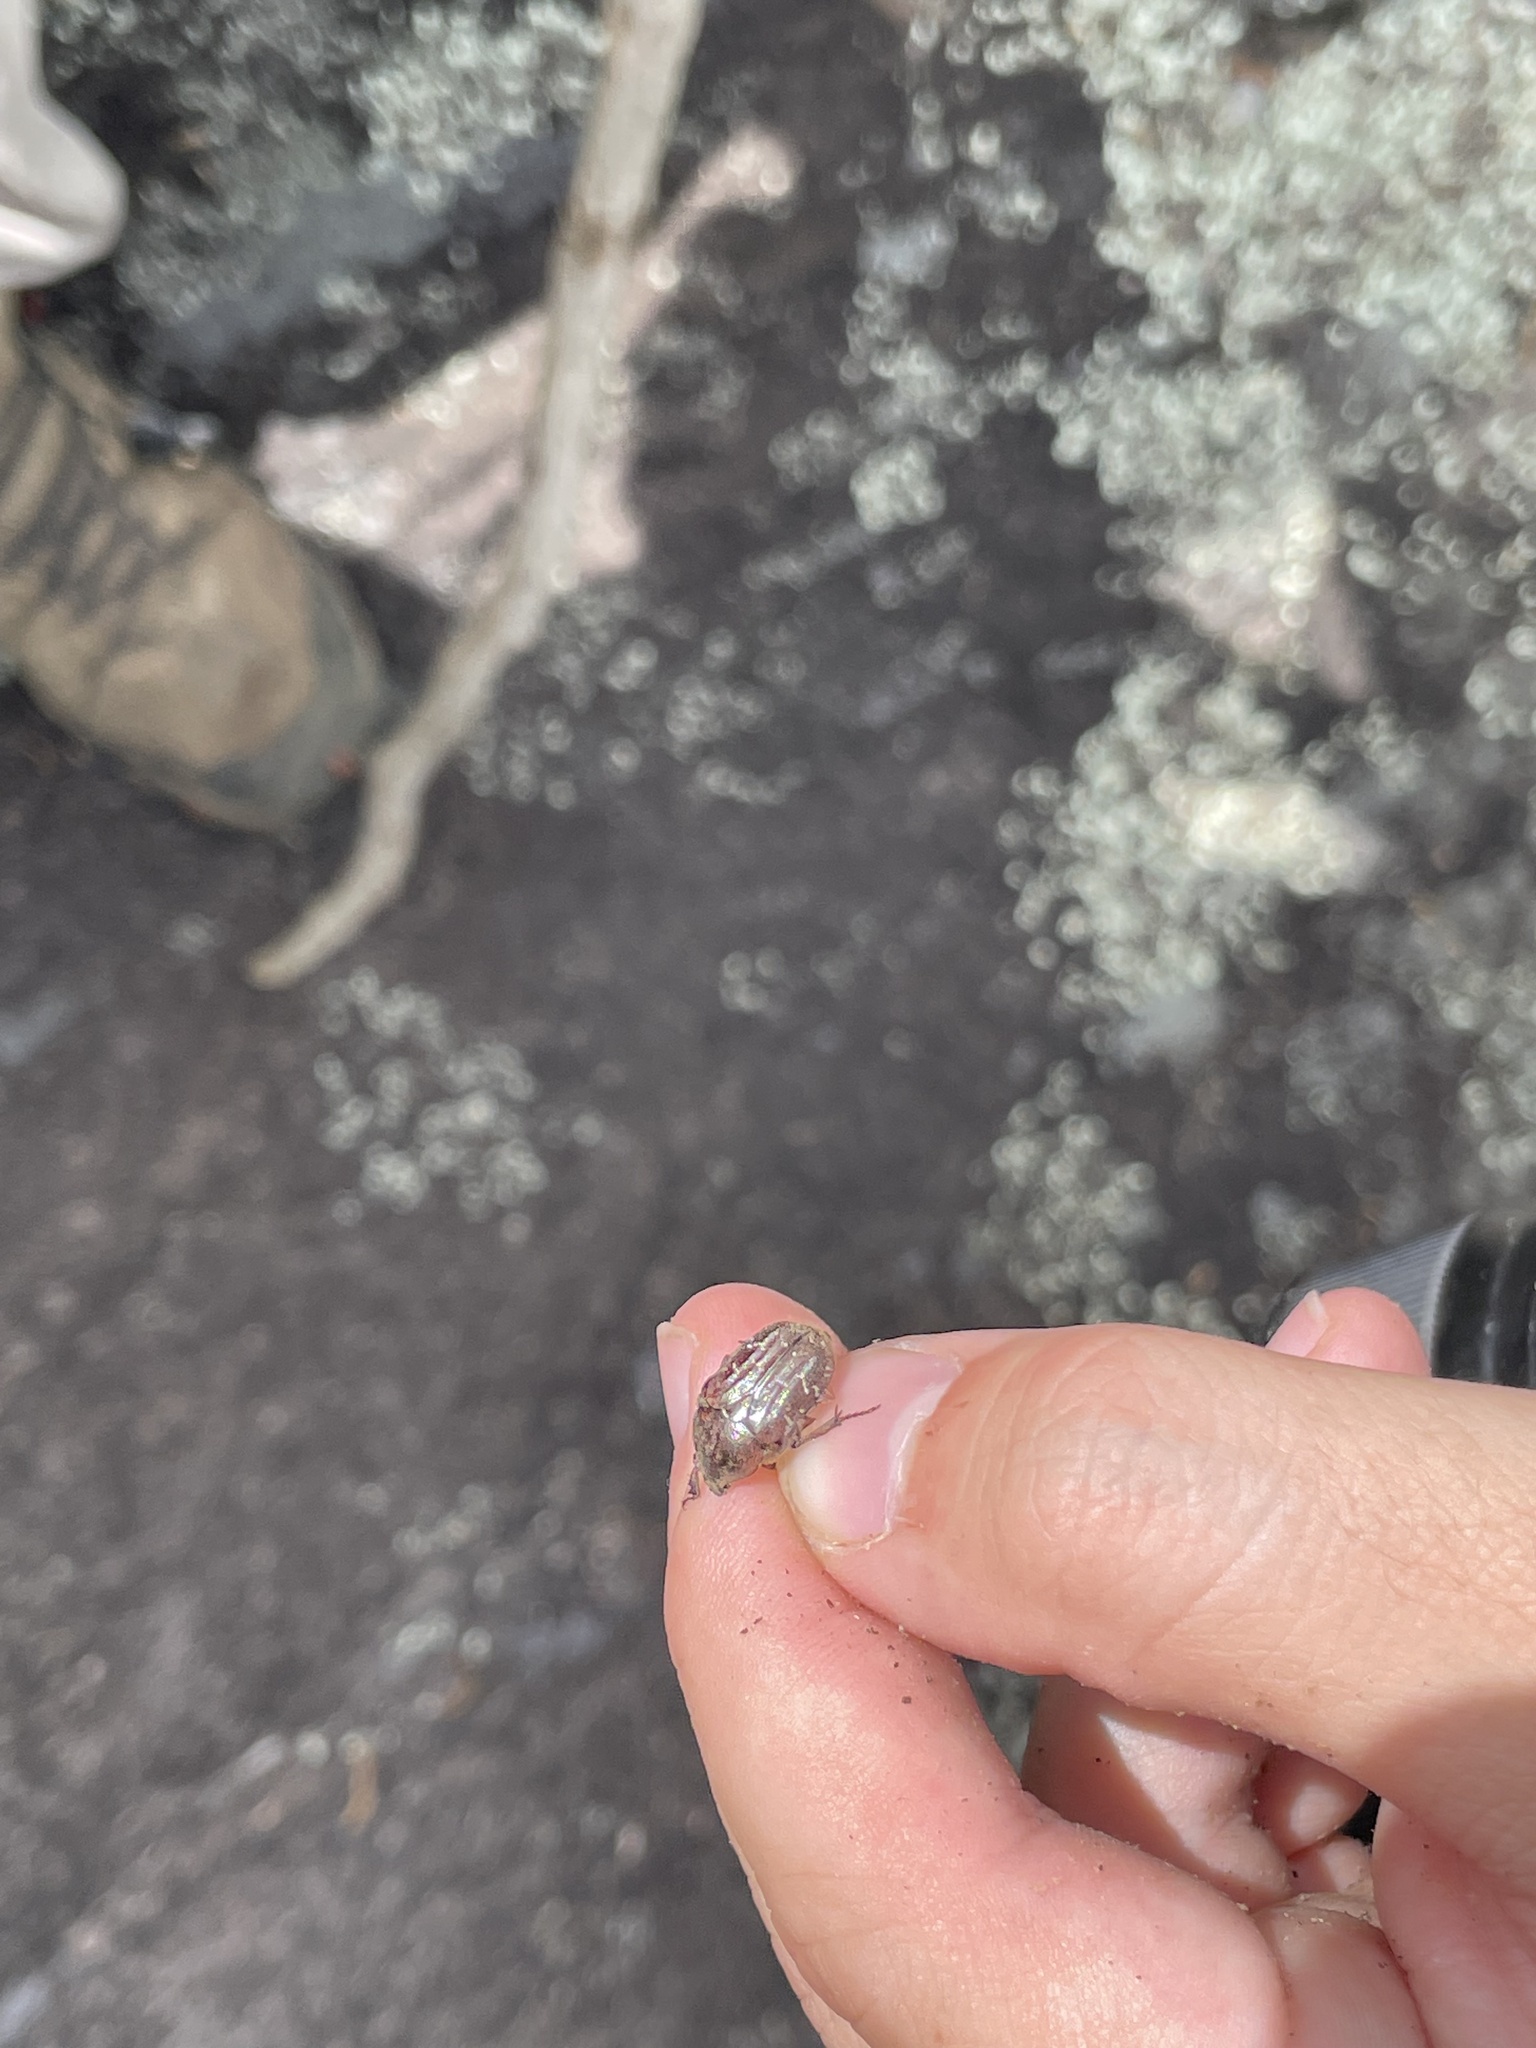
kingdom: Animalia
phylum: Arthropoda
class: Insecta
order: Coleoptera
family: Scarabaeidae
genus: Euphoria
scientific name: Euphoria sepulcralis
